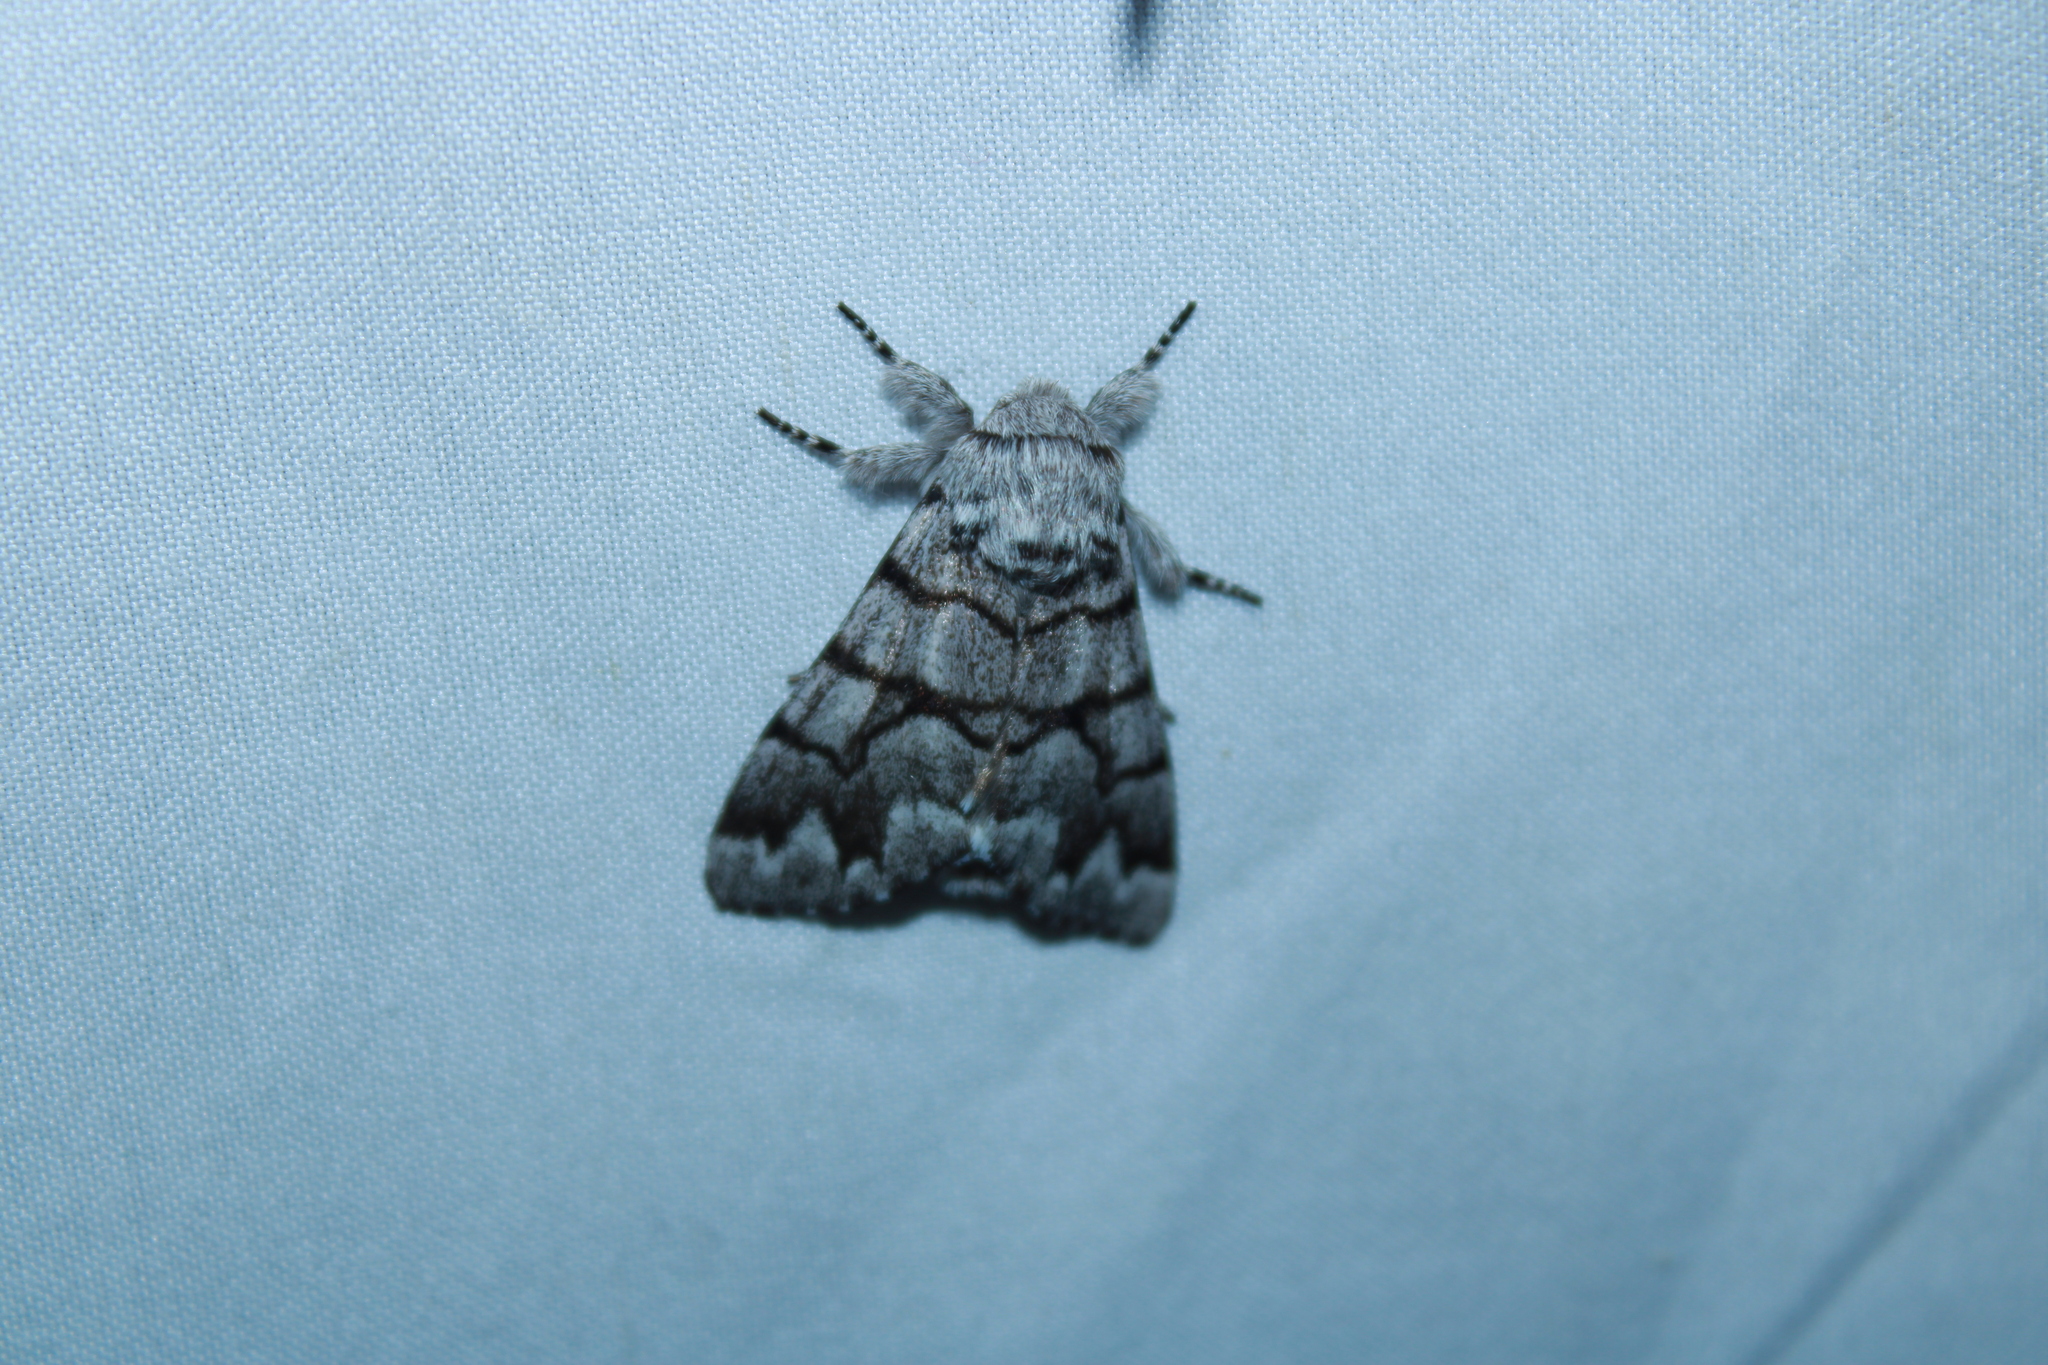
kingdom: Animalia
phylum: Arthropoda
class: Insecta
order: Lepidoptera
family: Noctuidae
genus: Panthea
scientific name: Panthea furcilla
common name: Eastern panthea moth
